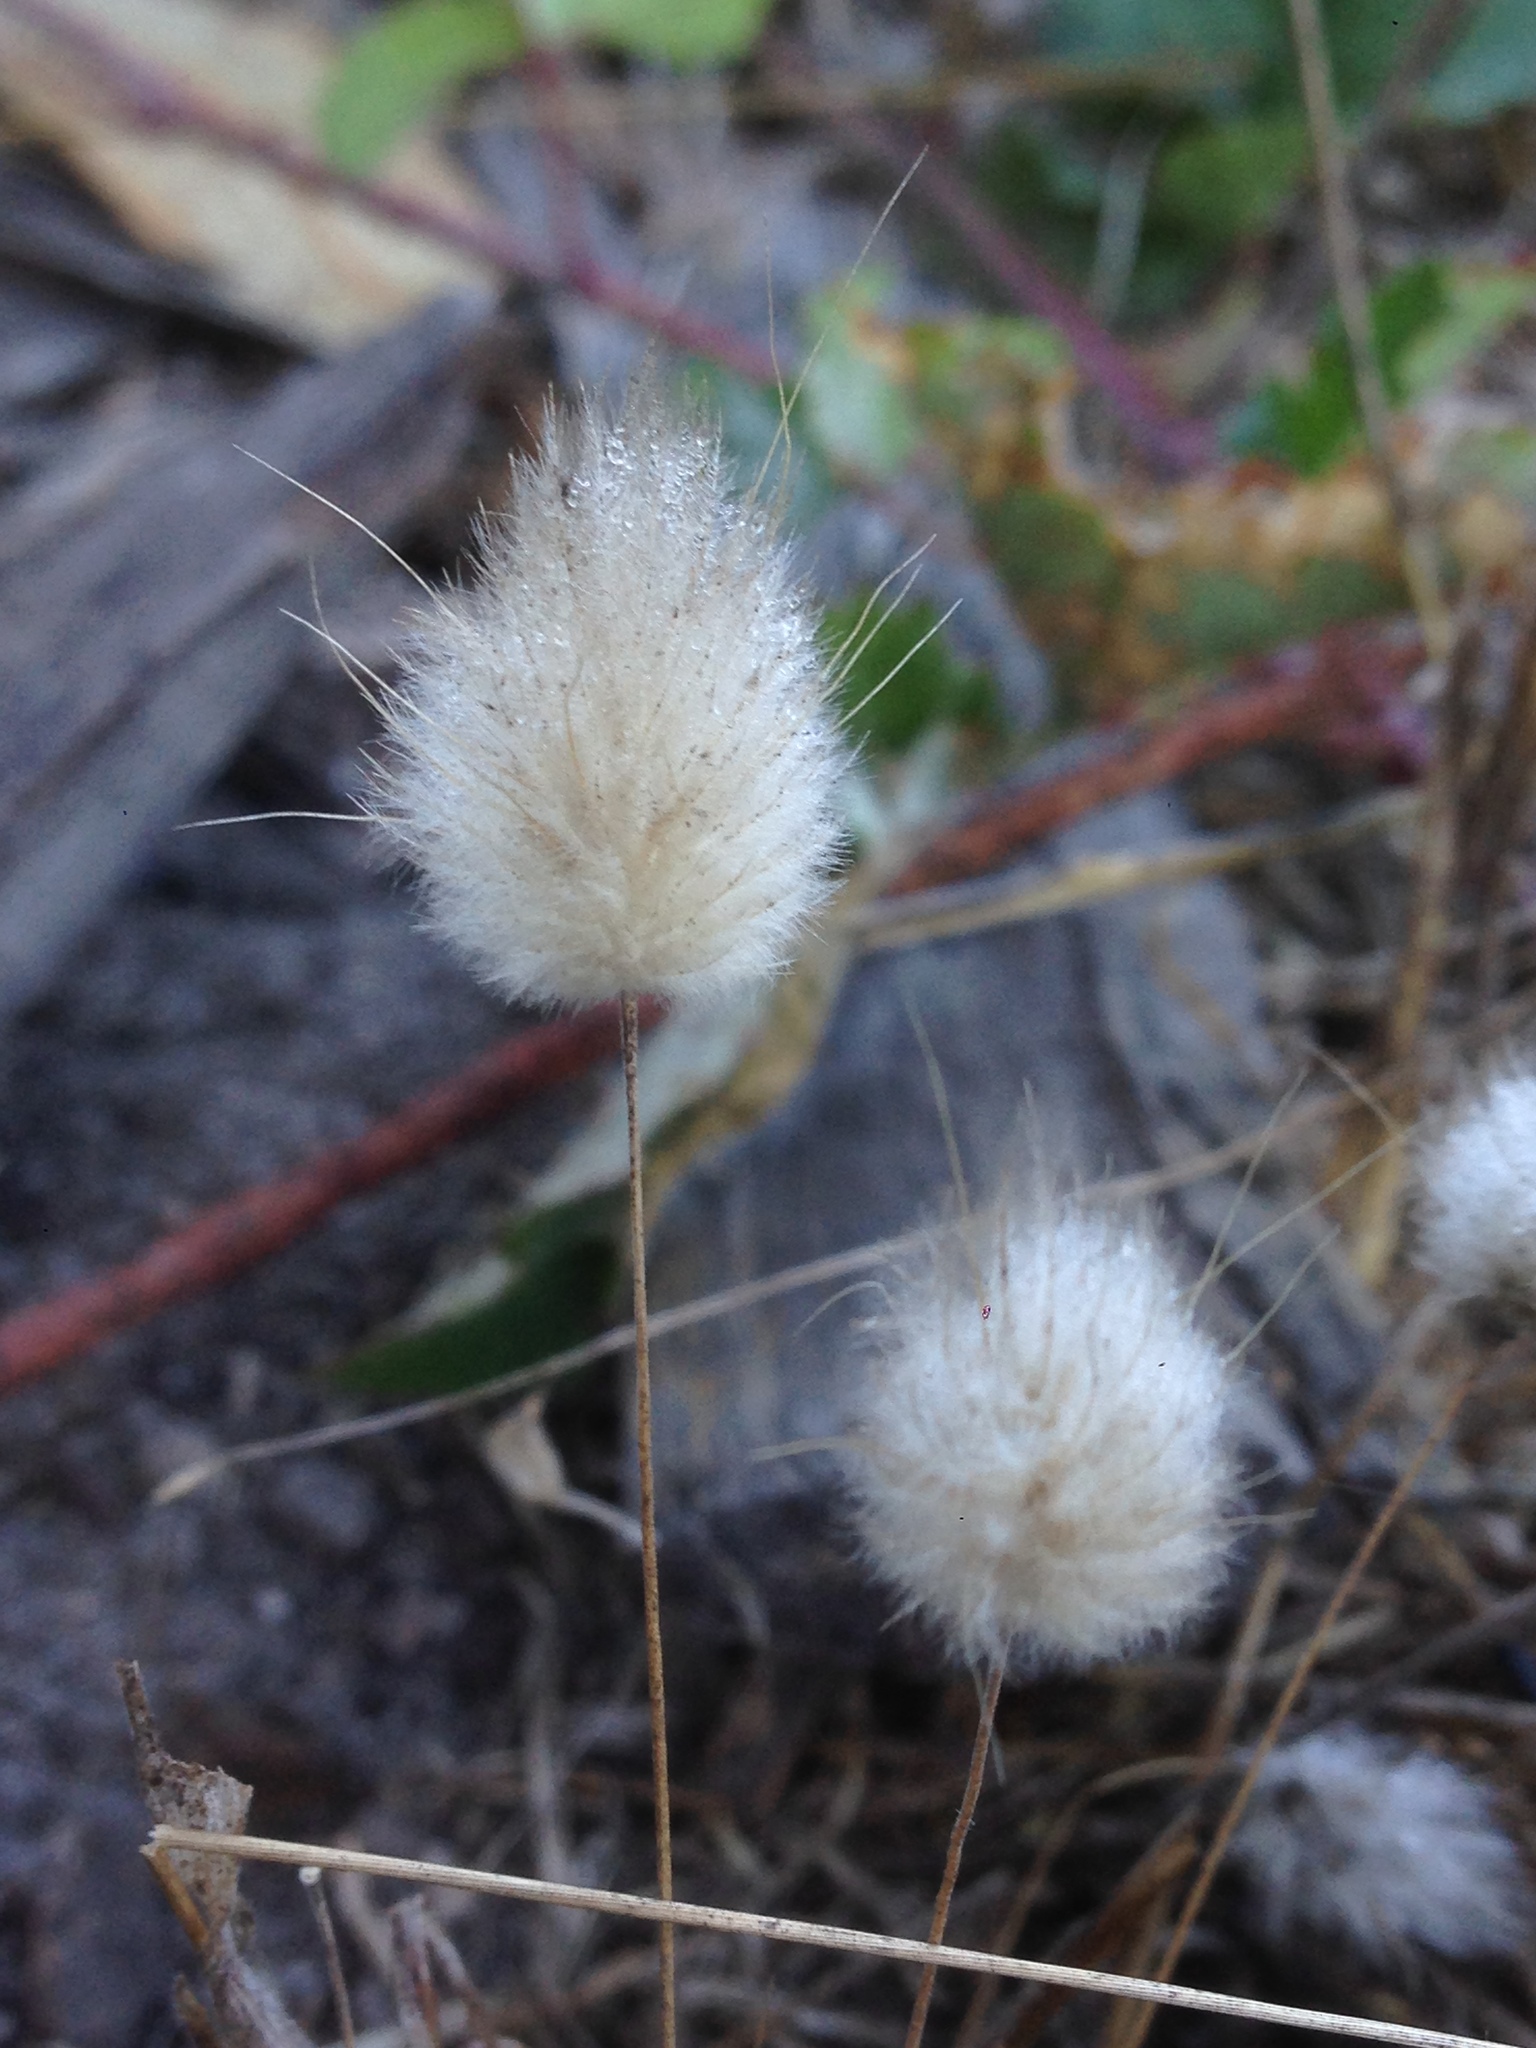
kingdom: Plantae
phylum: Tracheophyta
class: Liliopsida
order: Poales
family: Poaceae
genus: Lagurus
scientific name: Lagurus ovatus
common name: Hare's-tail
